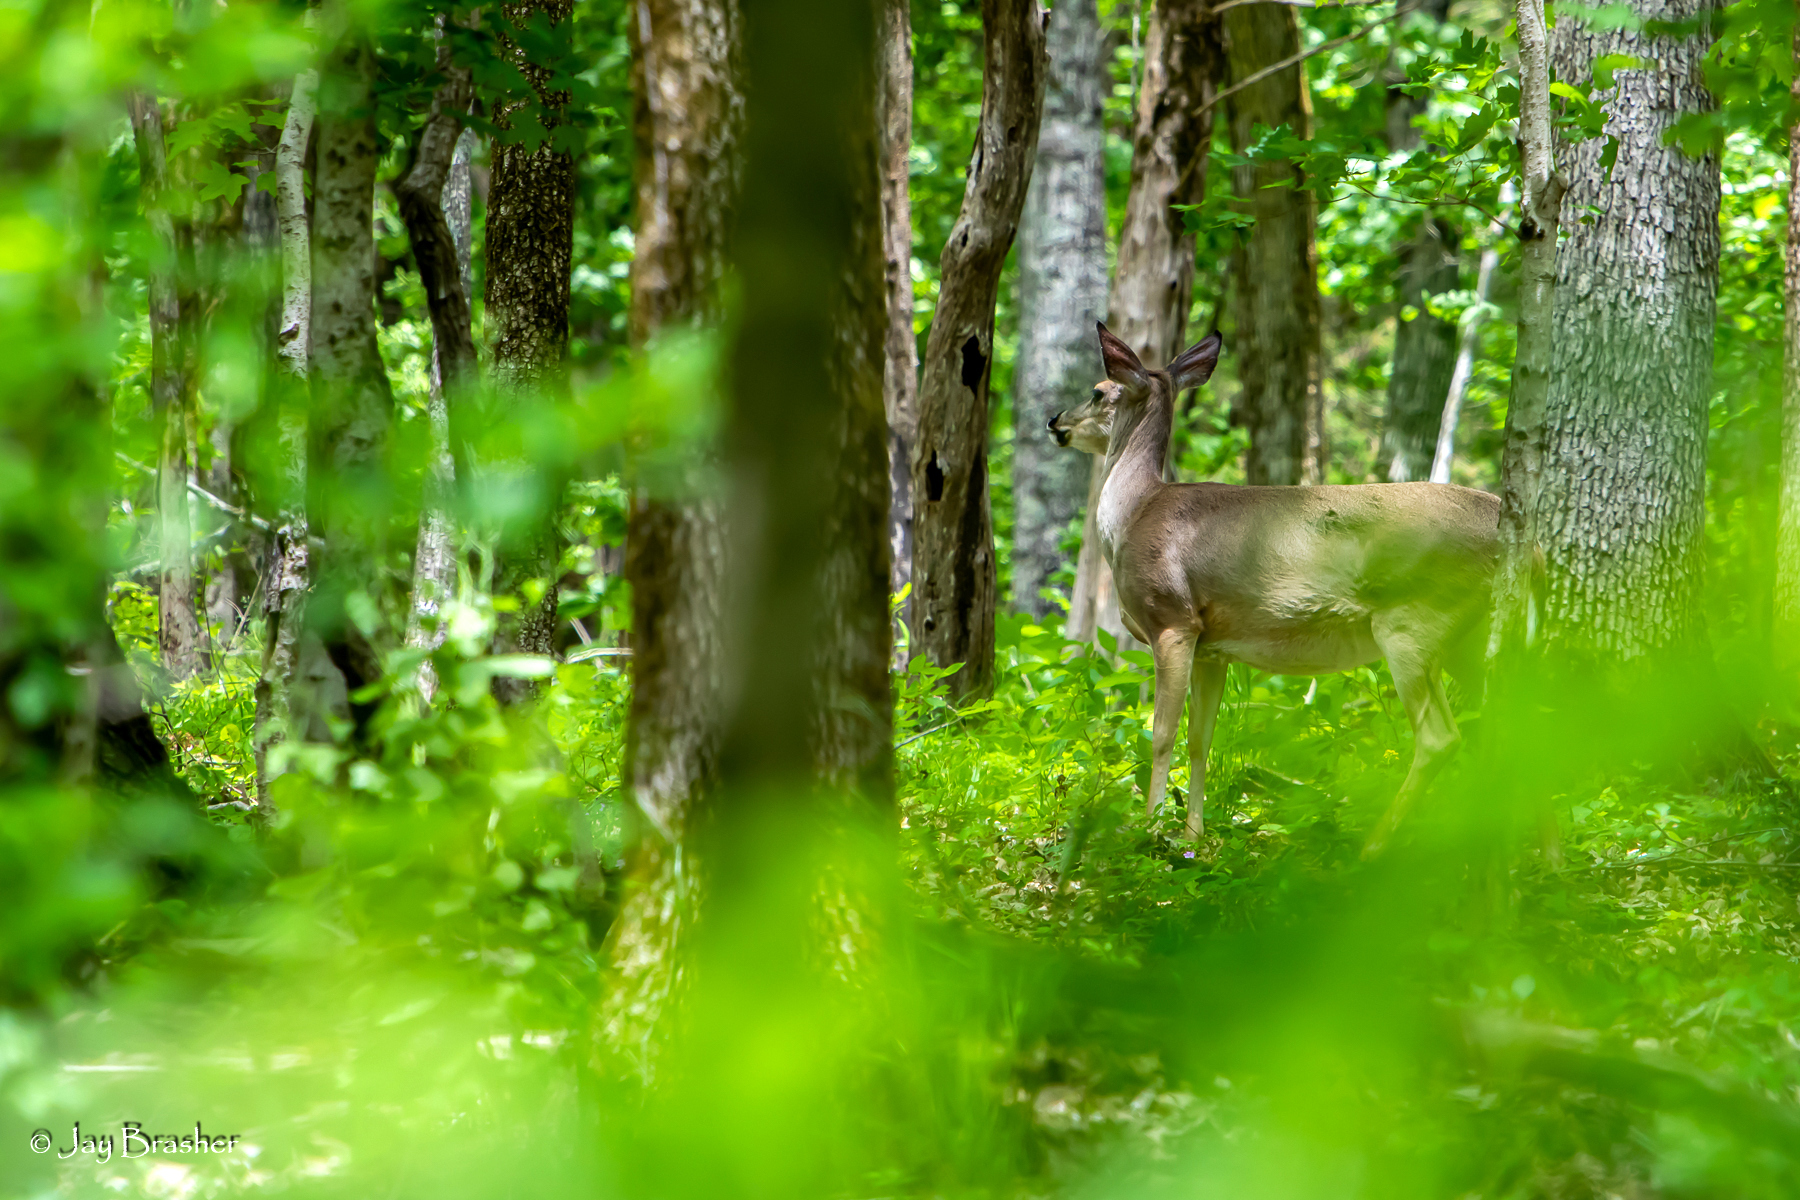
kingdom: Animalia
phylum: Chordata
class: Mammalia
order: Artiodactyla
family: Cervidae
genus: Odocoileus
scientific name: Odocoileus virginianus
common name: White-tailed deer
